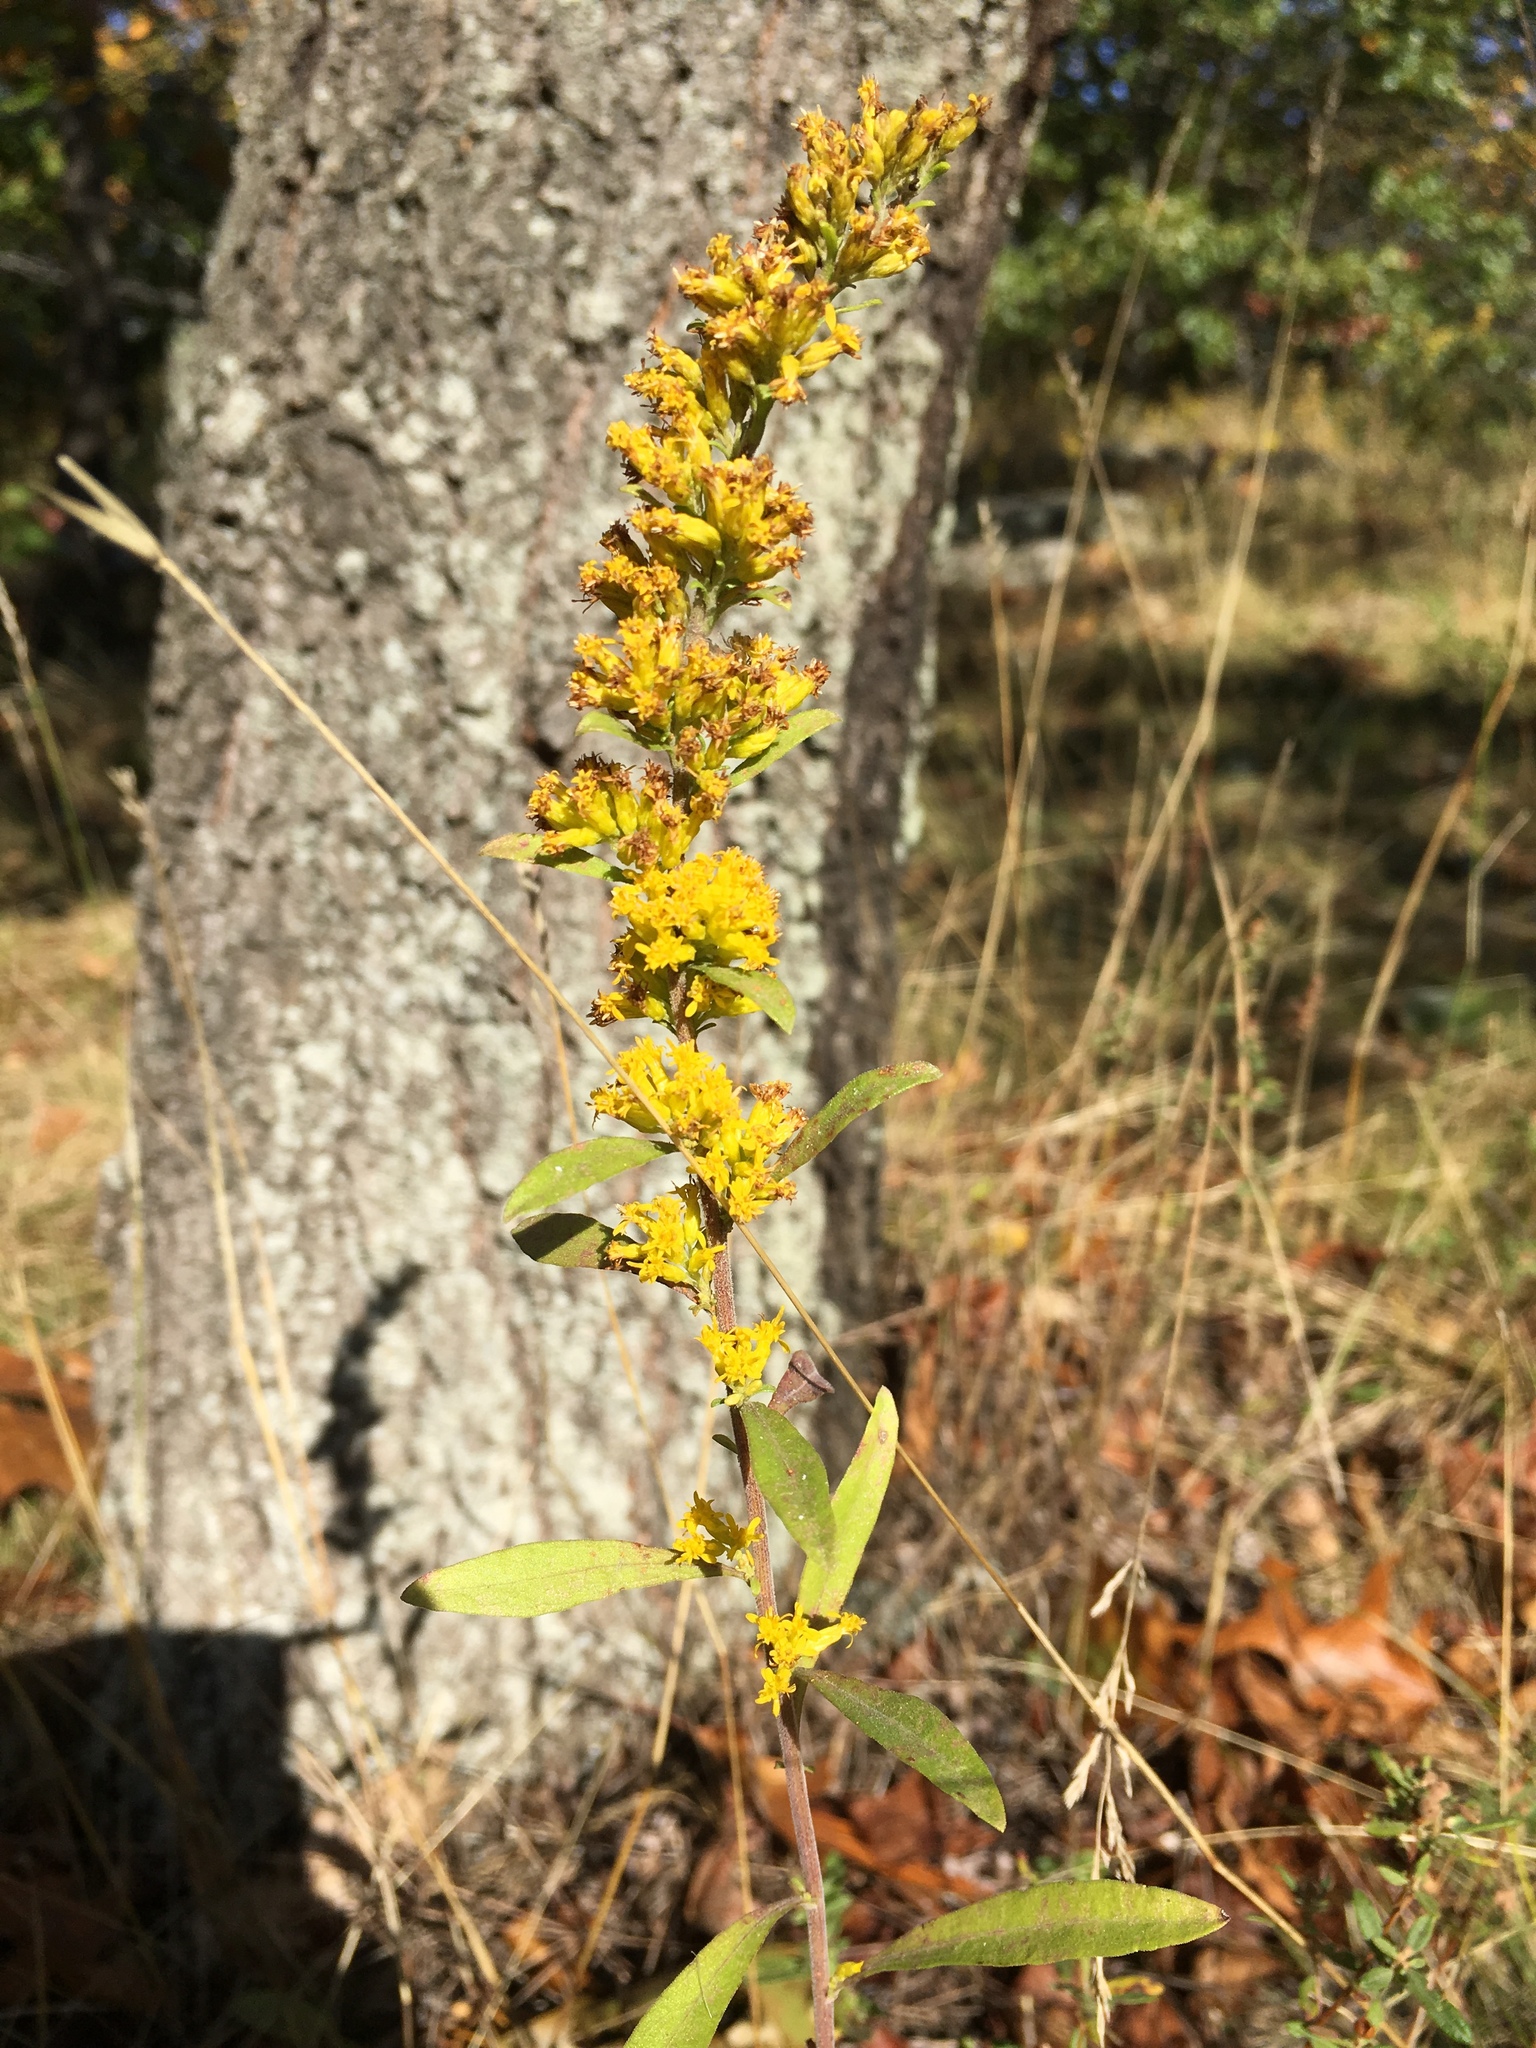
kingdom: Plantae
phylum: Tracheophyta
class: Magnoliopsida
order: Asterales
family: Asteraceae
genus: Solidago
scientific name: Solidago nemoralis
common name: Grey goldenrod
